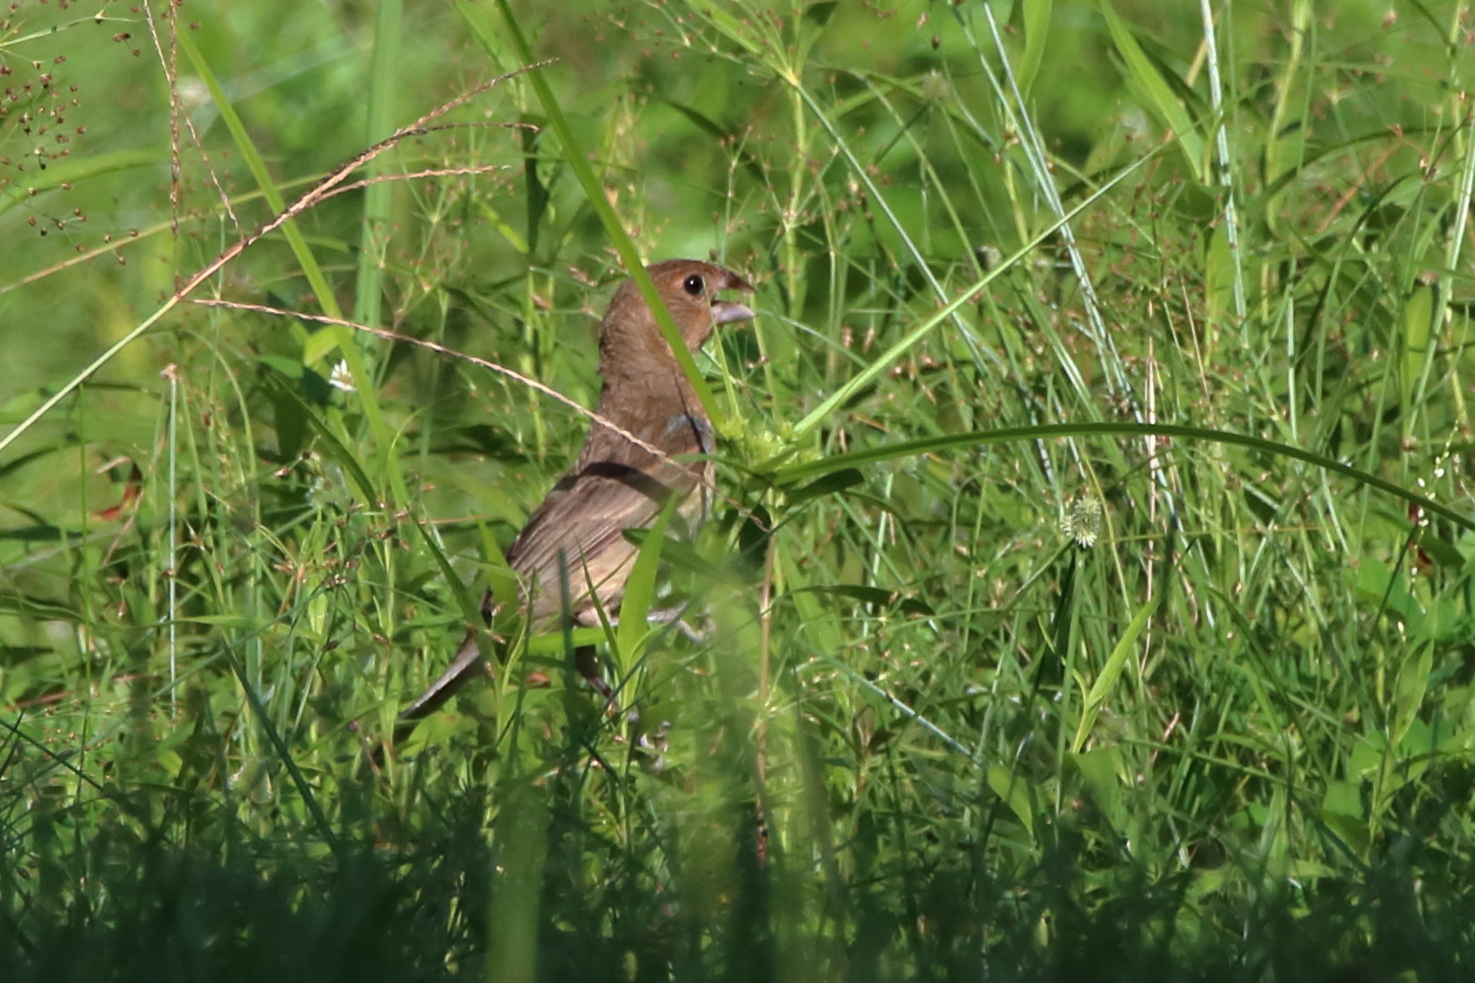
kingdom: Animalia
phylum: Chordata
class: Aves
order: Passeriformes
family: Cardinalidae
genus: Passerina
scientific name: Passerina caerulea
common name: Blue grosbeak
